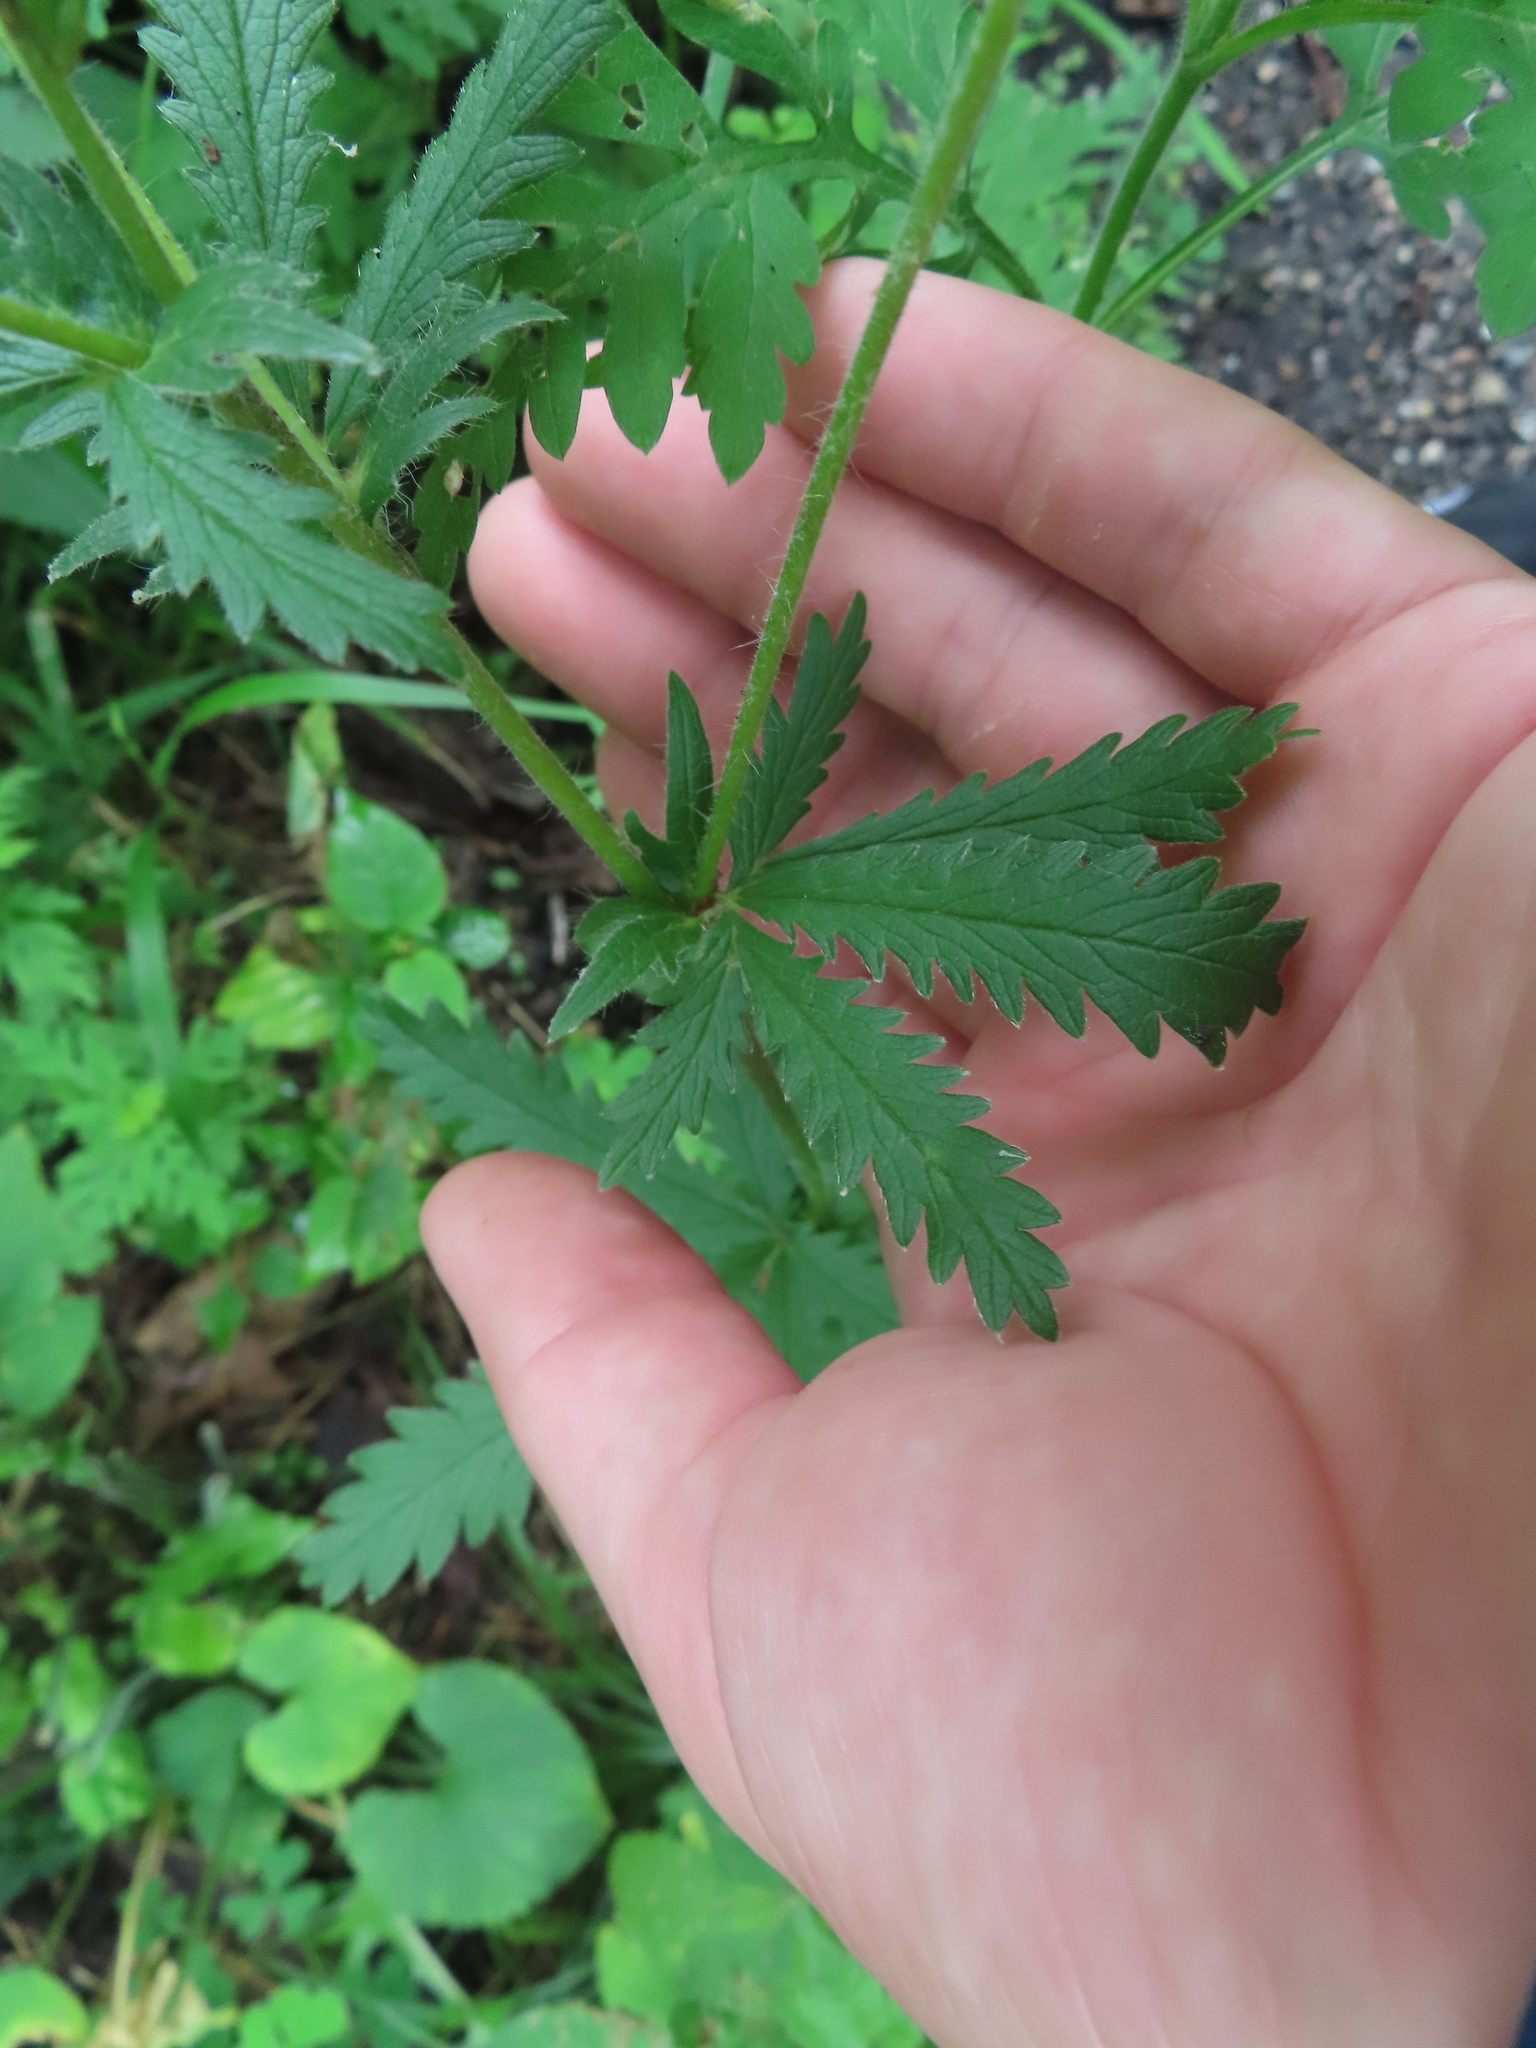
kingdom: Plantae
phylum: Tracheophyta
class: Magnoliopsida
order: Rosales
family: Rosaceae
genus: Potentilla
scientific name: Potentilla recta
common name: Sulphur cinquefoil
